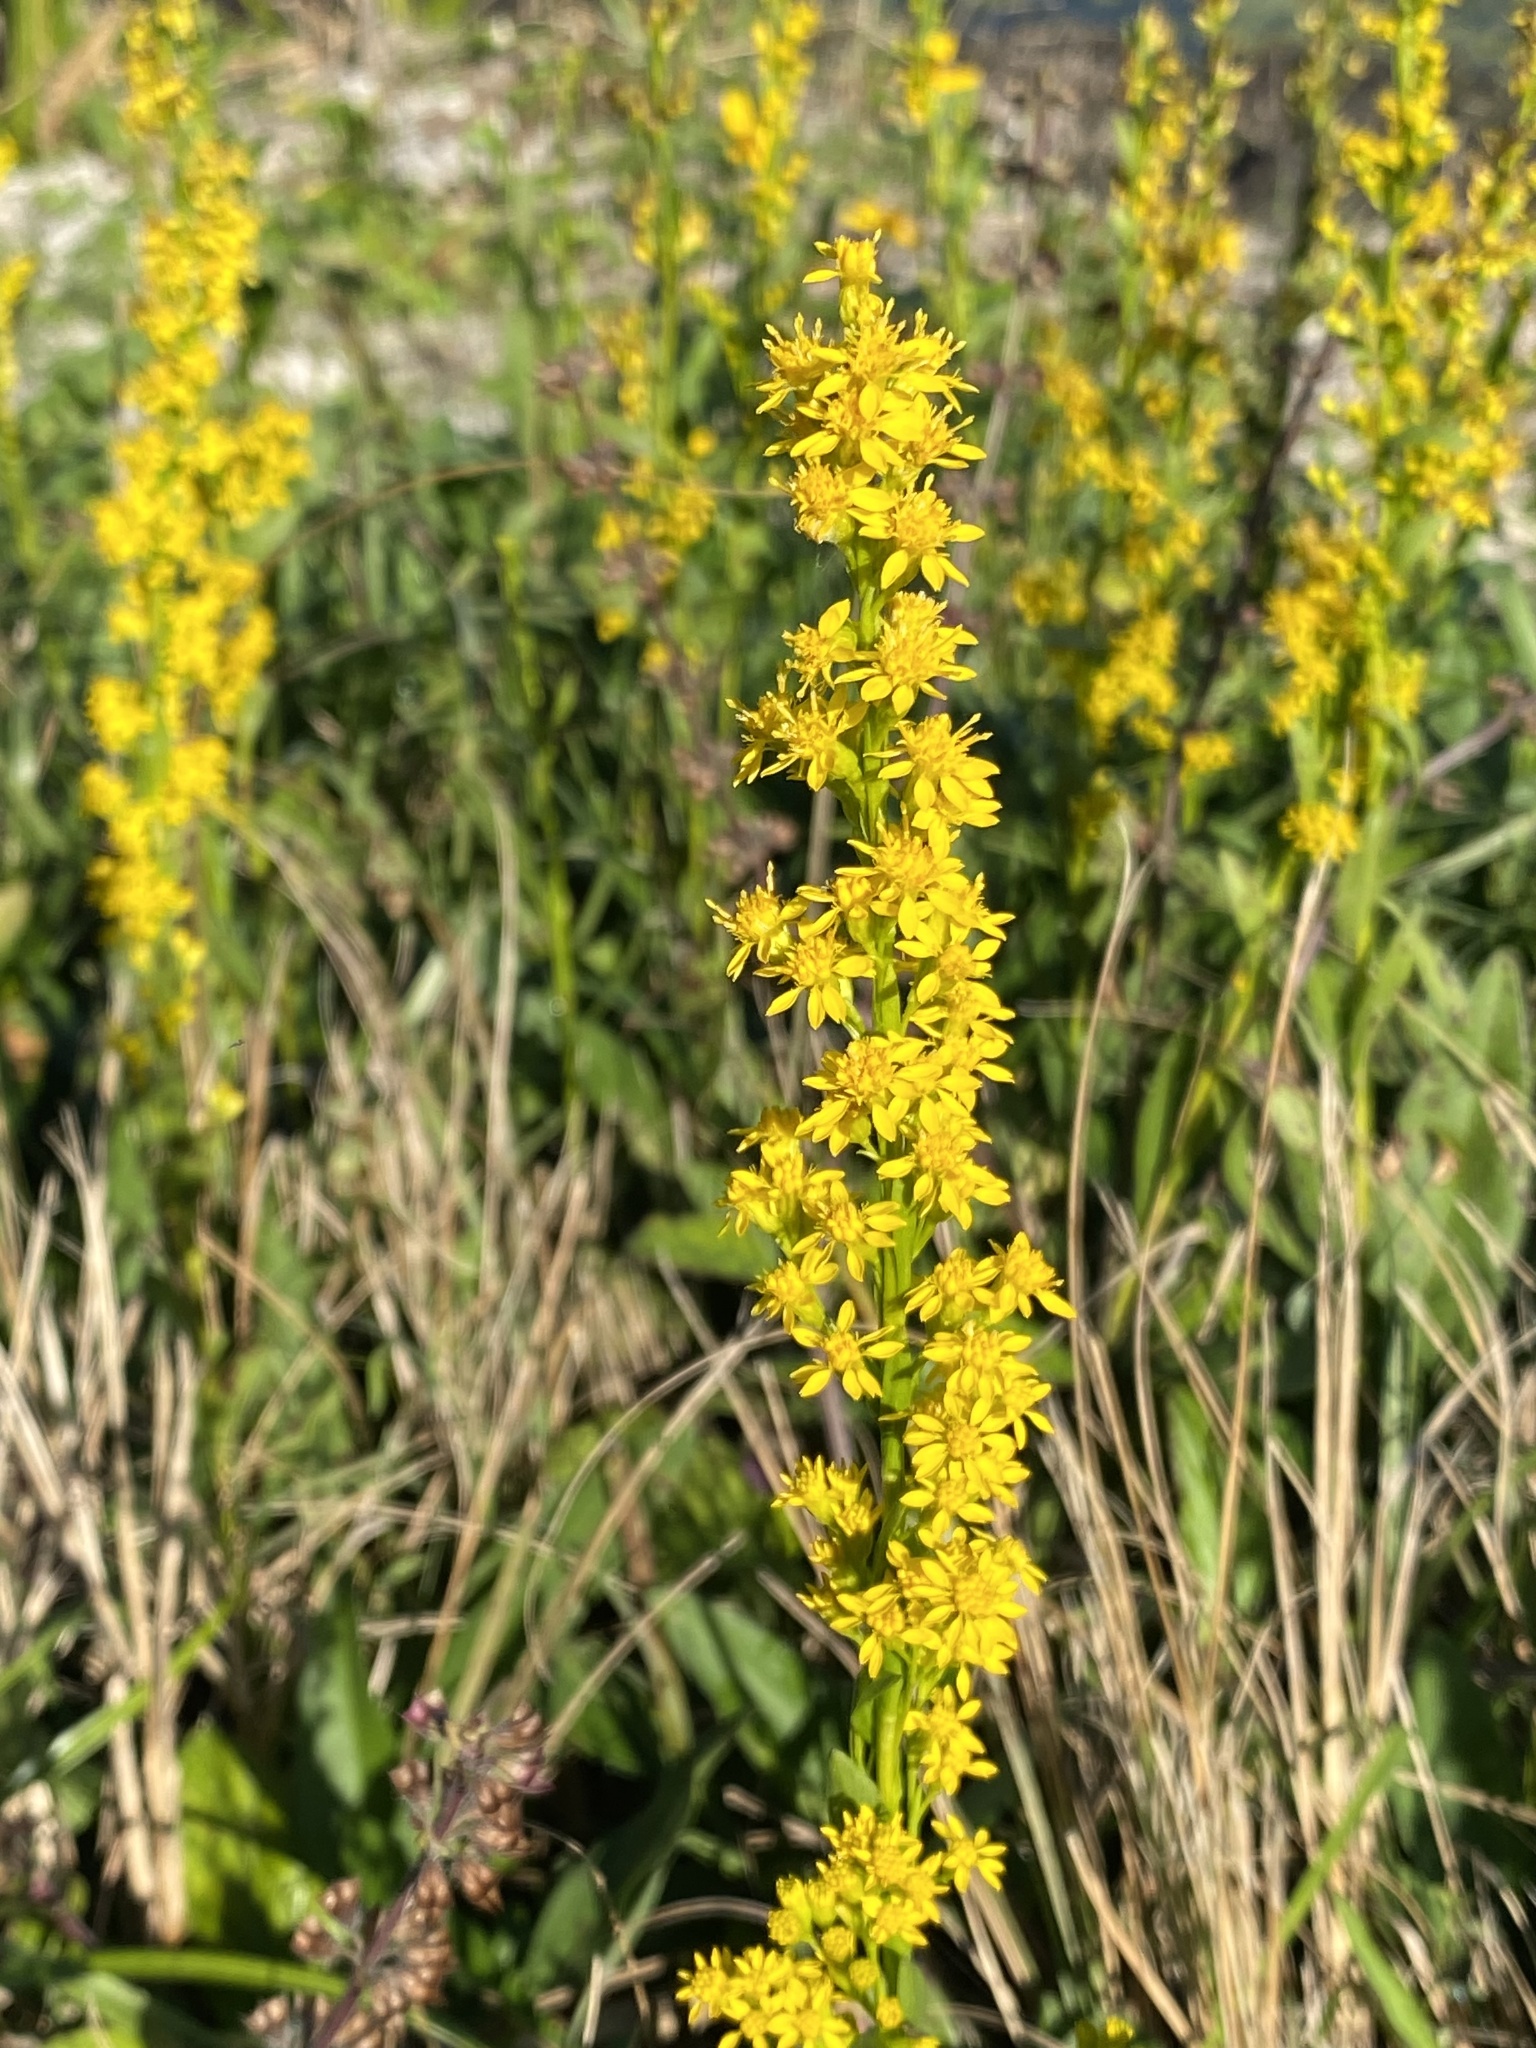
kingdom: Plantae
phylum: Tracheophyta
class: Magnoliopsida
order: Asterales
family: Asteraceae
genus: Solidago
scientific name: Solidago mexicana
